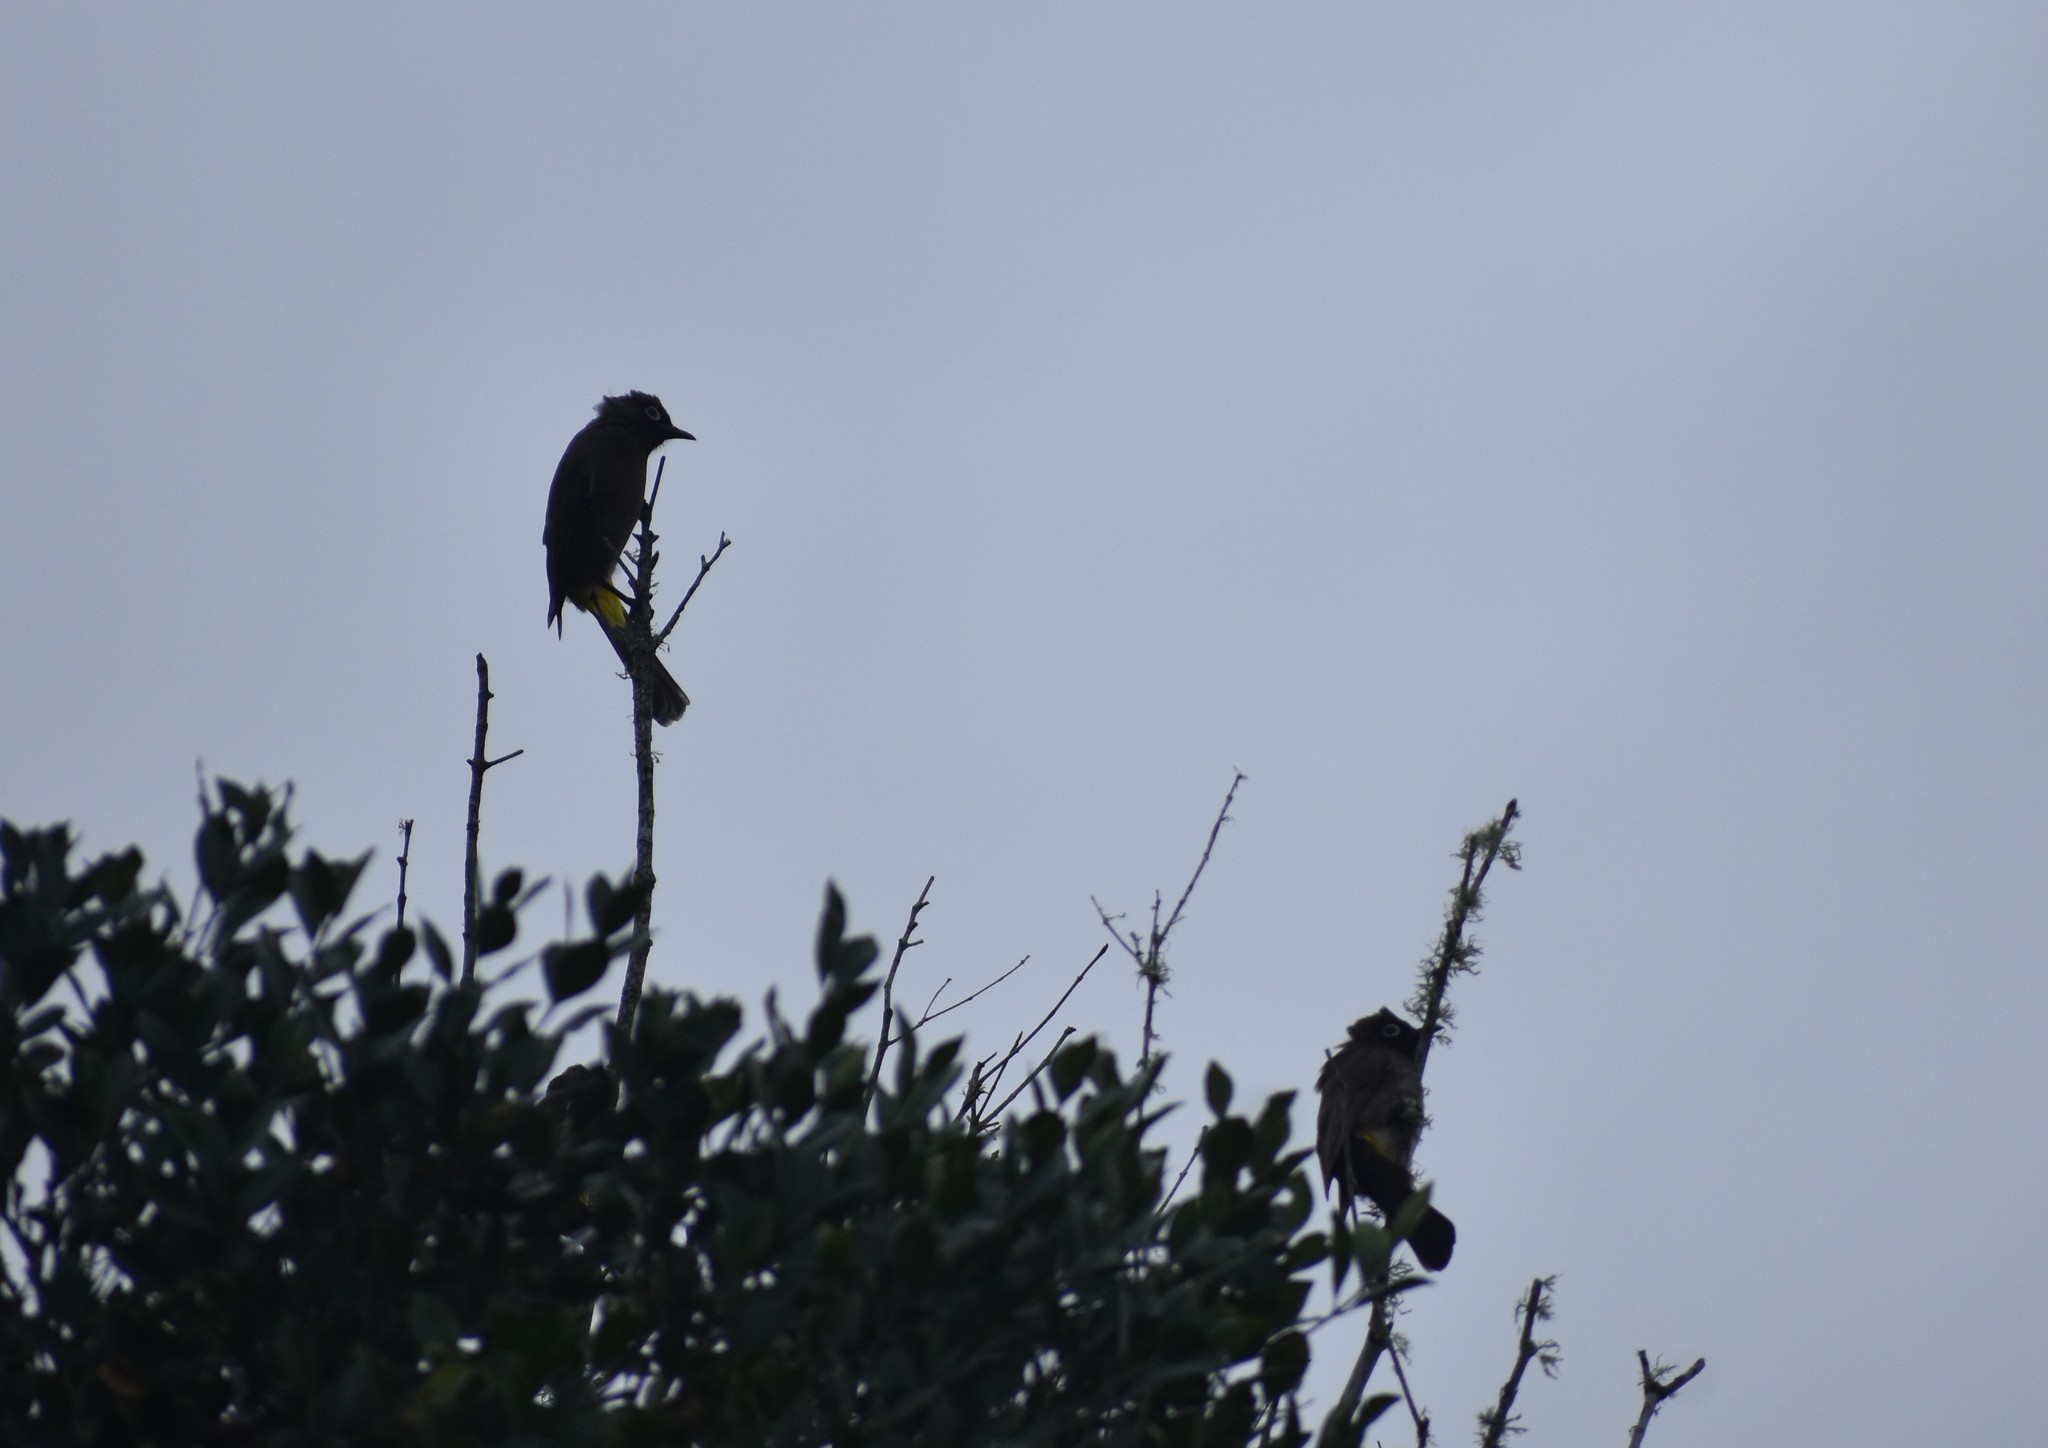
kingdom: Animalia
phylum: Chordata
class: Aves
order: Passeriformes
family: Pycnonotidae
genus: Pycnonotus
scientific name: Pycnonotus capensis
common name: Cape bulbul
